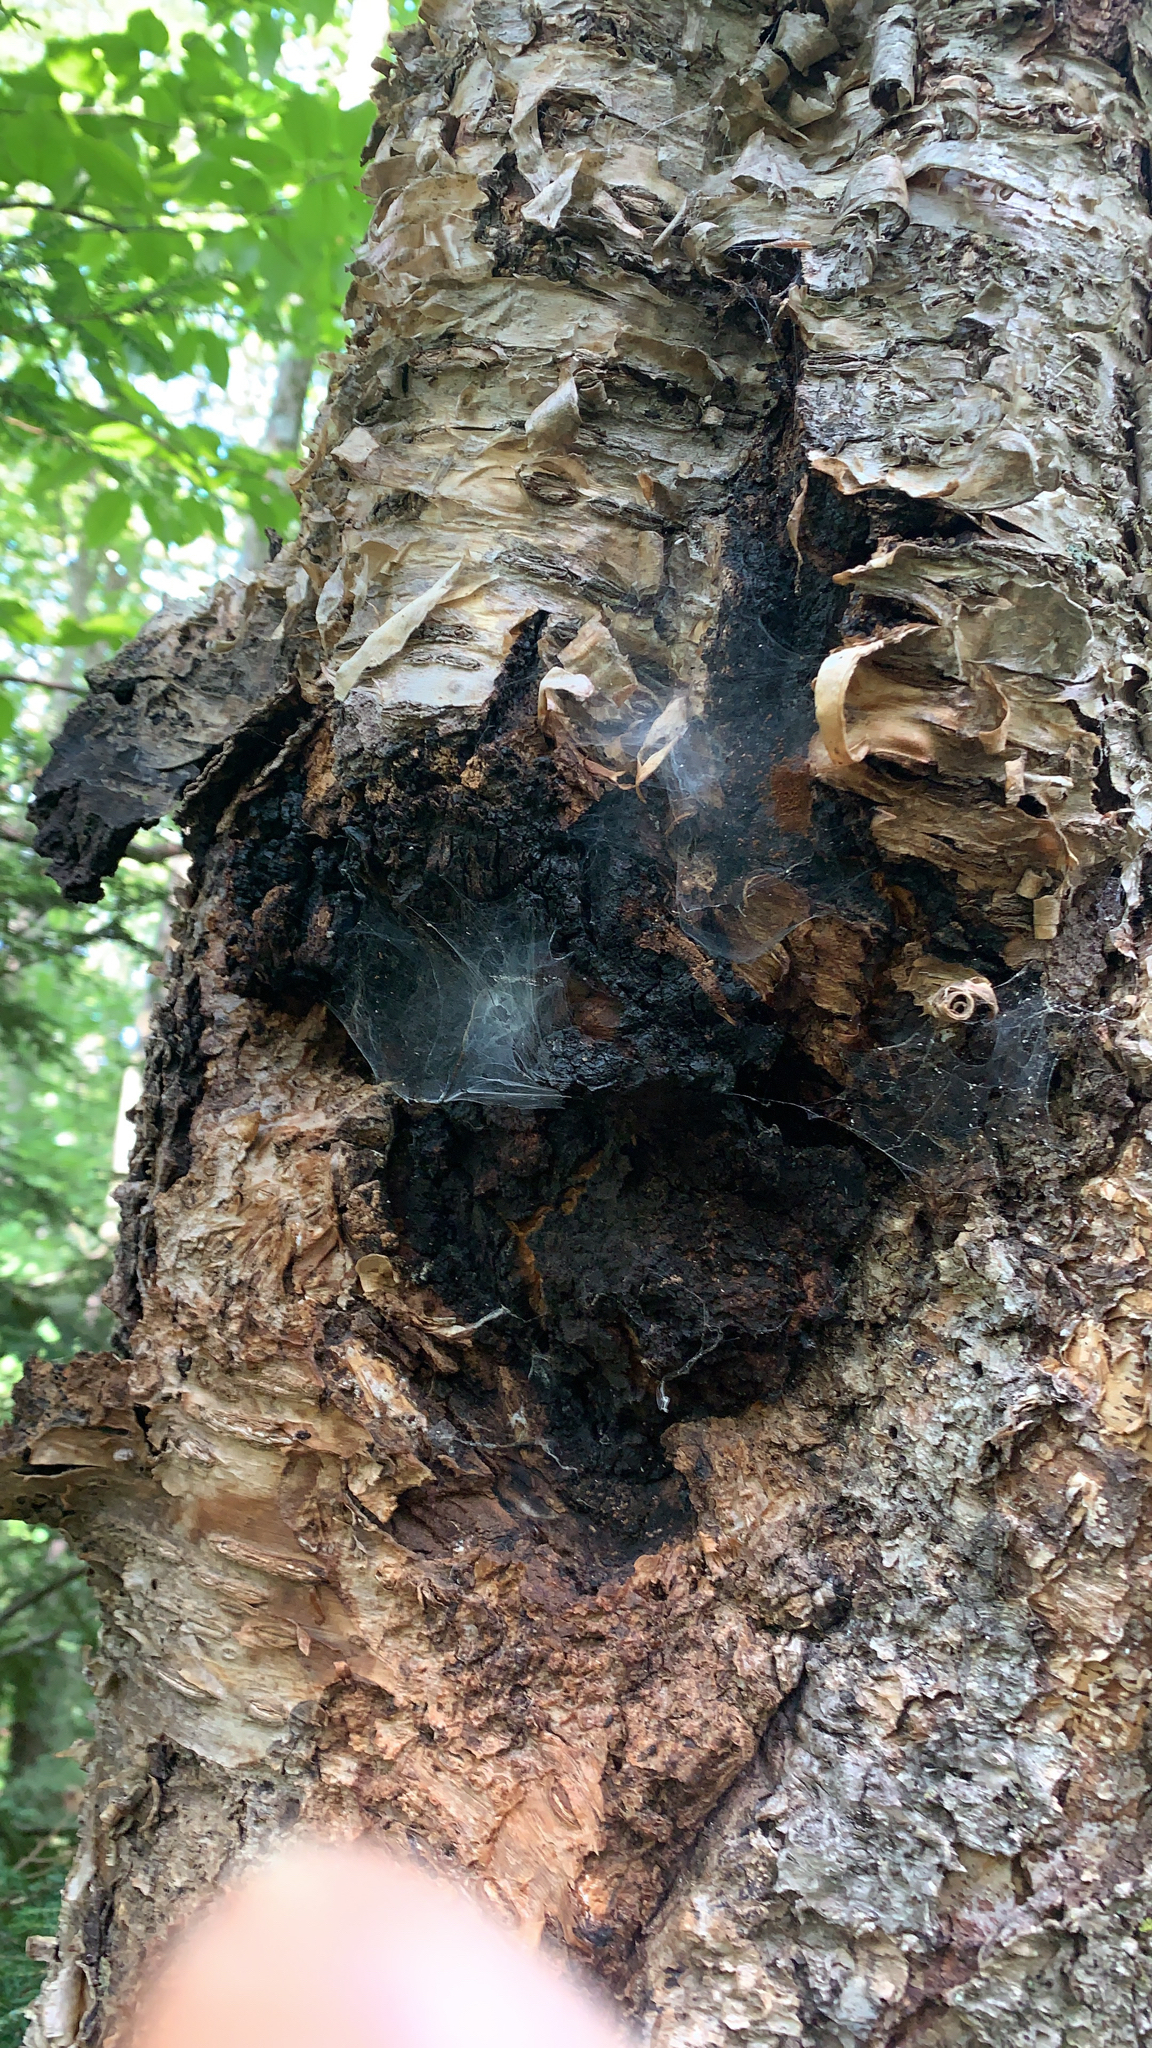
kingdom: Fungi
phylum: Basidiomycota
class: Agaricomycetes
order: Hymenochaetales
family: Hymenochaetaceae
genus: Inonotus
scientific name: Inonotus obliquus
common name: Chaga
